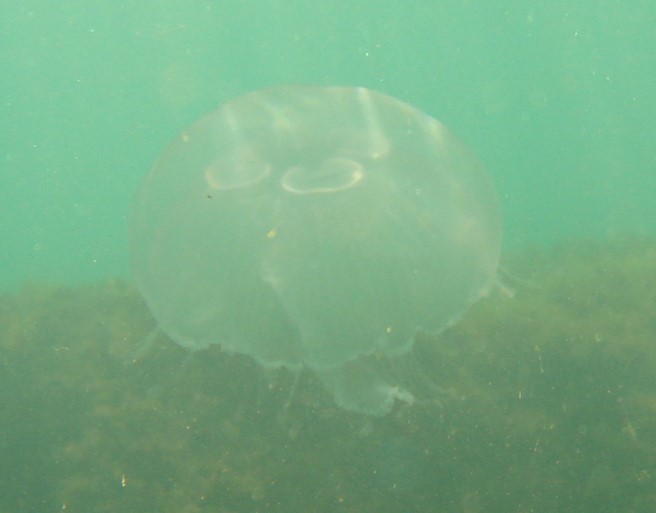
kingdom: Animalia
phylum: Cnidaria
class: Scyphozoa
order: Semaeostomeae
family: Ulmaridae
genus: Aurelia
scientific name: Aurelia aurita
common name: Moon jellyfish
